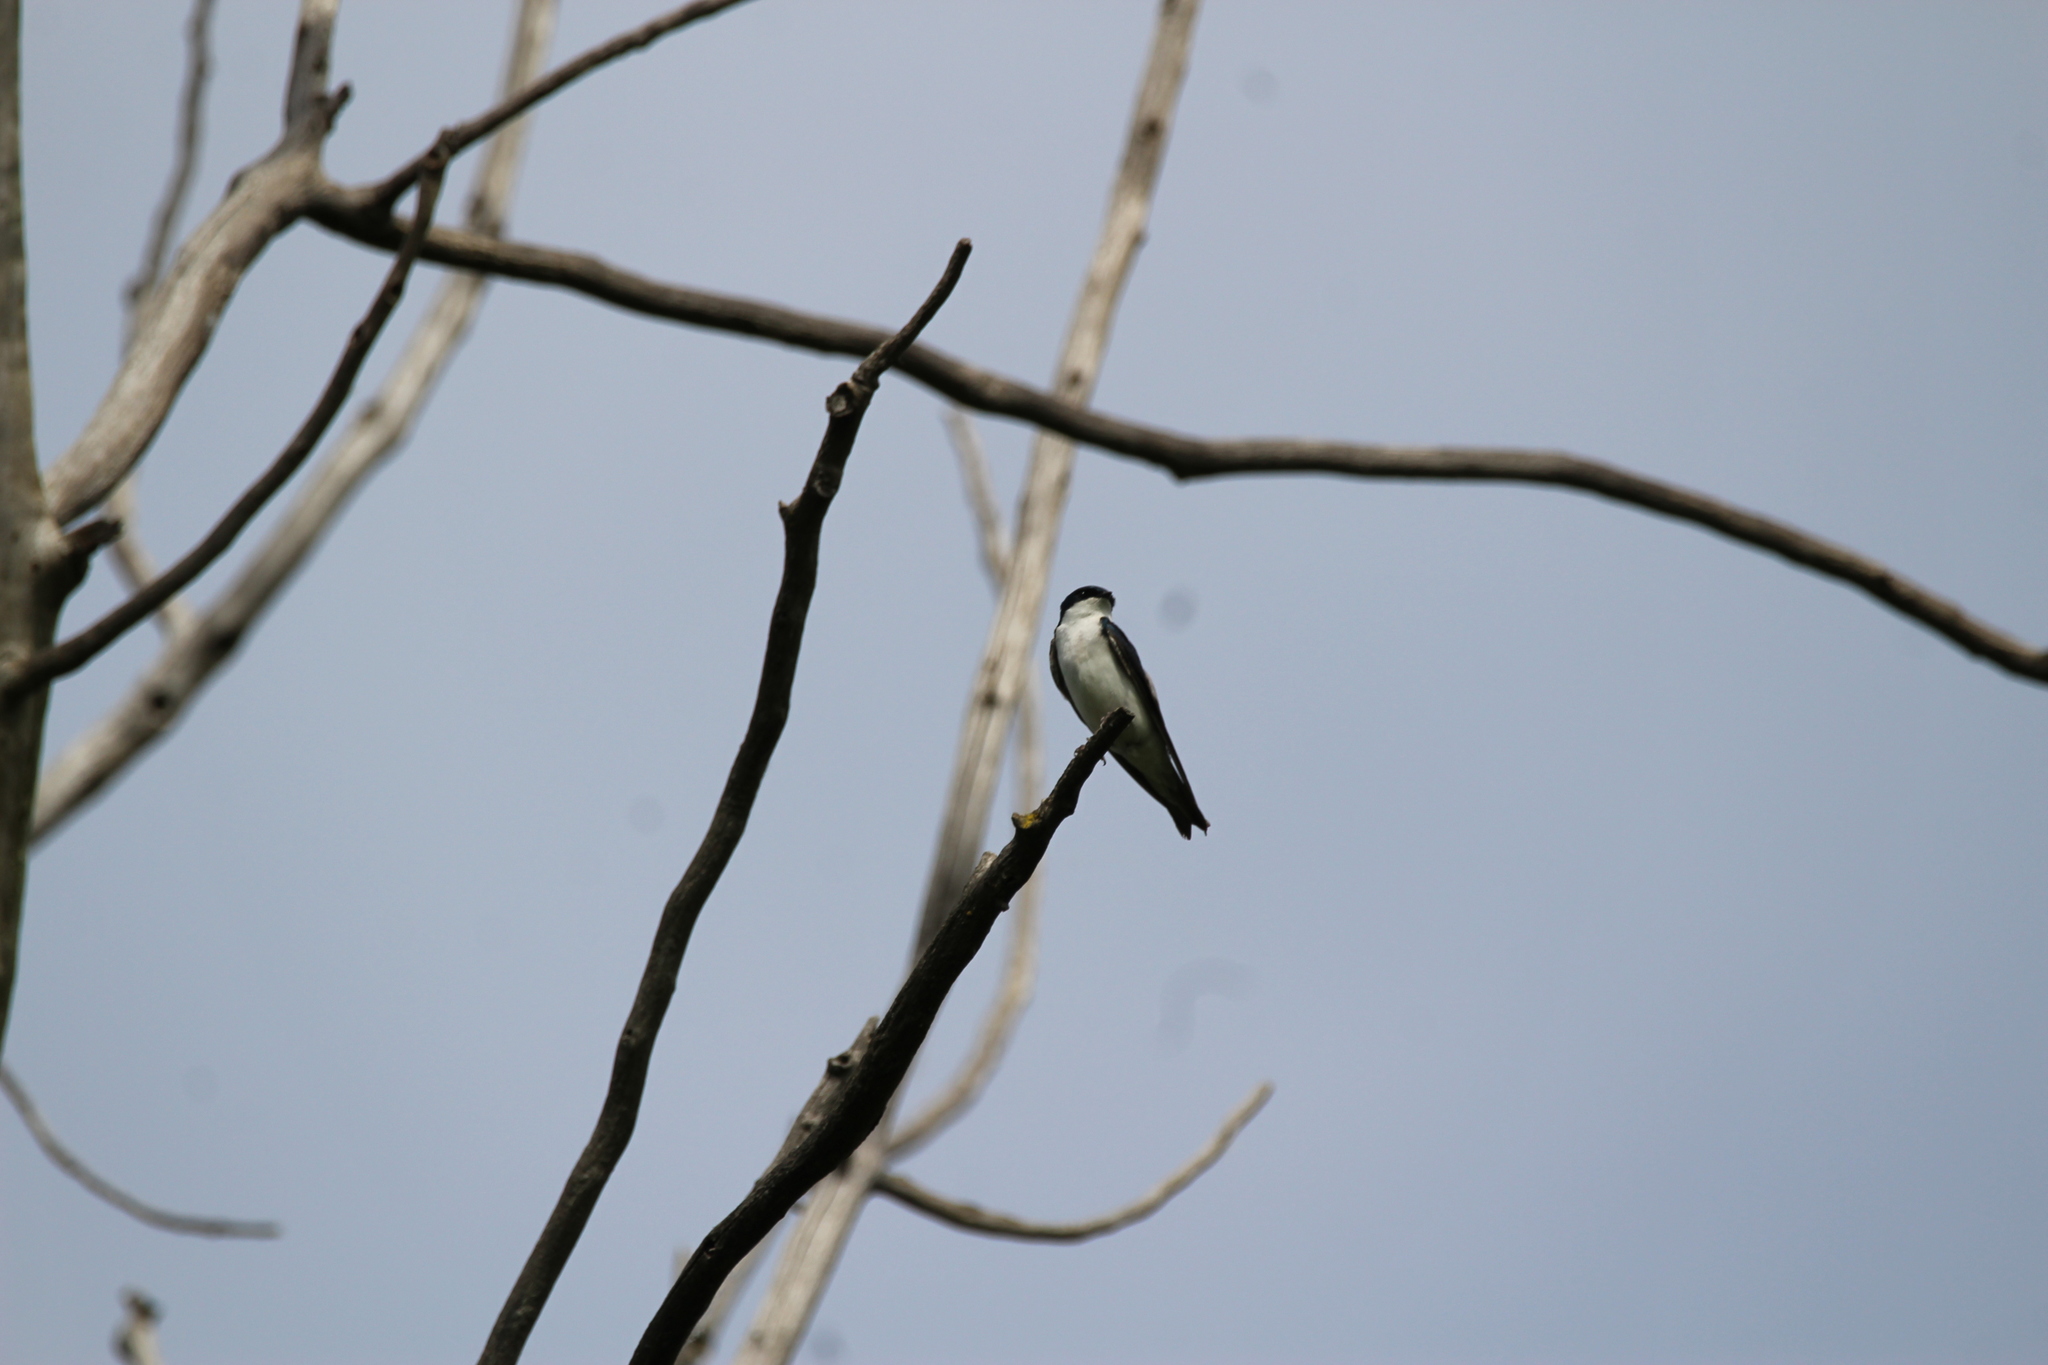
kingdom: Animalia
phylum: Chordata
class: Aves
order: Passeriformes
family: Hirundinidae
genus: Tachycineta
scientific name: Tachycineta bicolor
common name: Tree swallow
